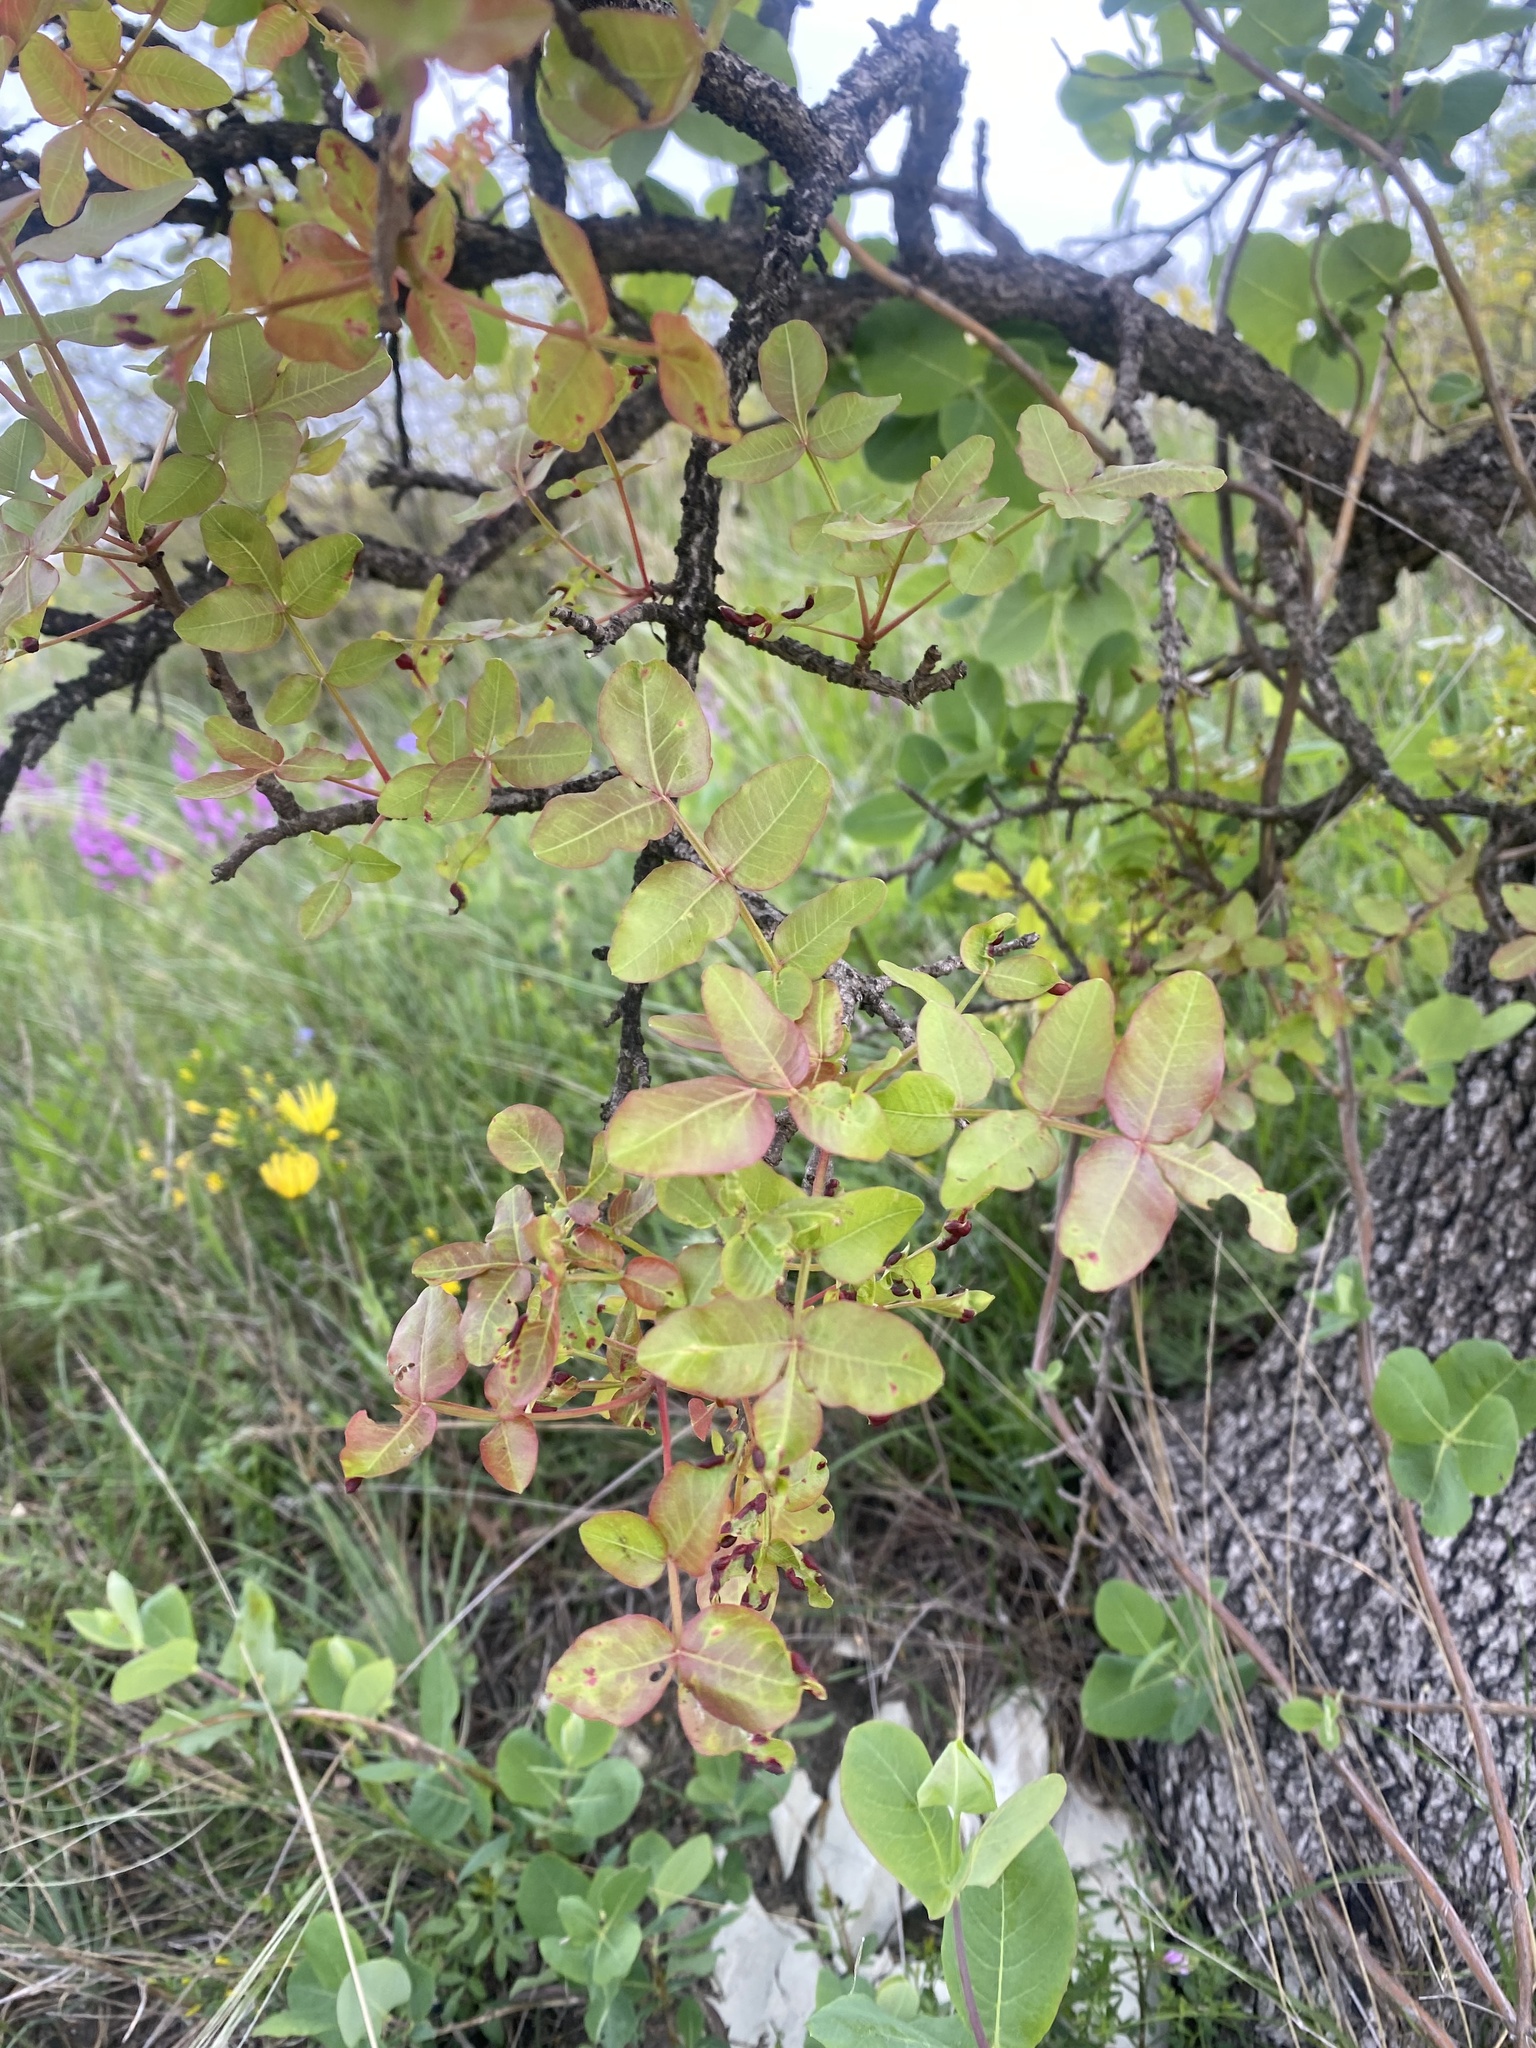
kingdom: Plantae
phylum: Tracheophyta
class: Magnoliopsida
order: Sapindales
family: Anacardiaceae
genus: Pistacia
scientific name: Pistacia atlantica
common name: Mt. atlas mastic tree
